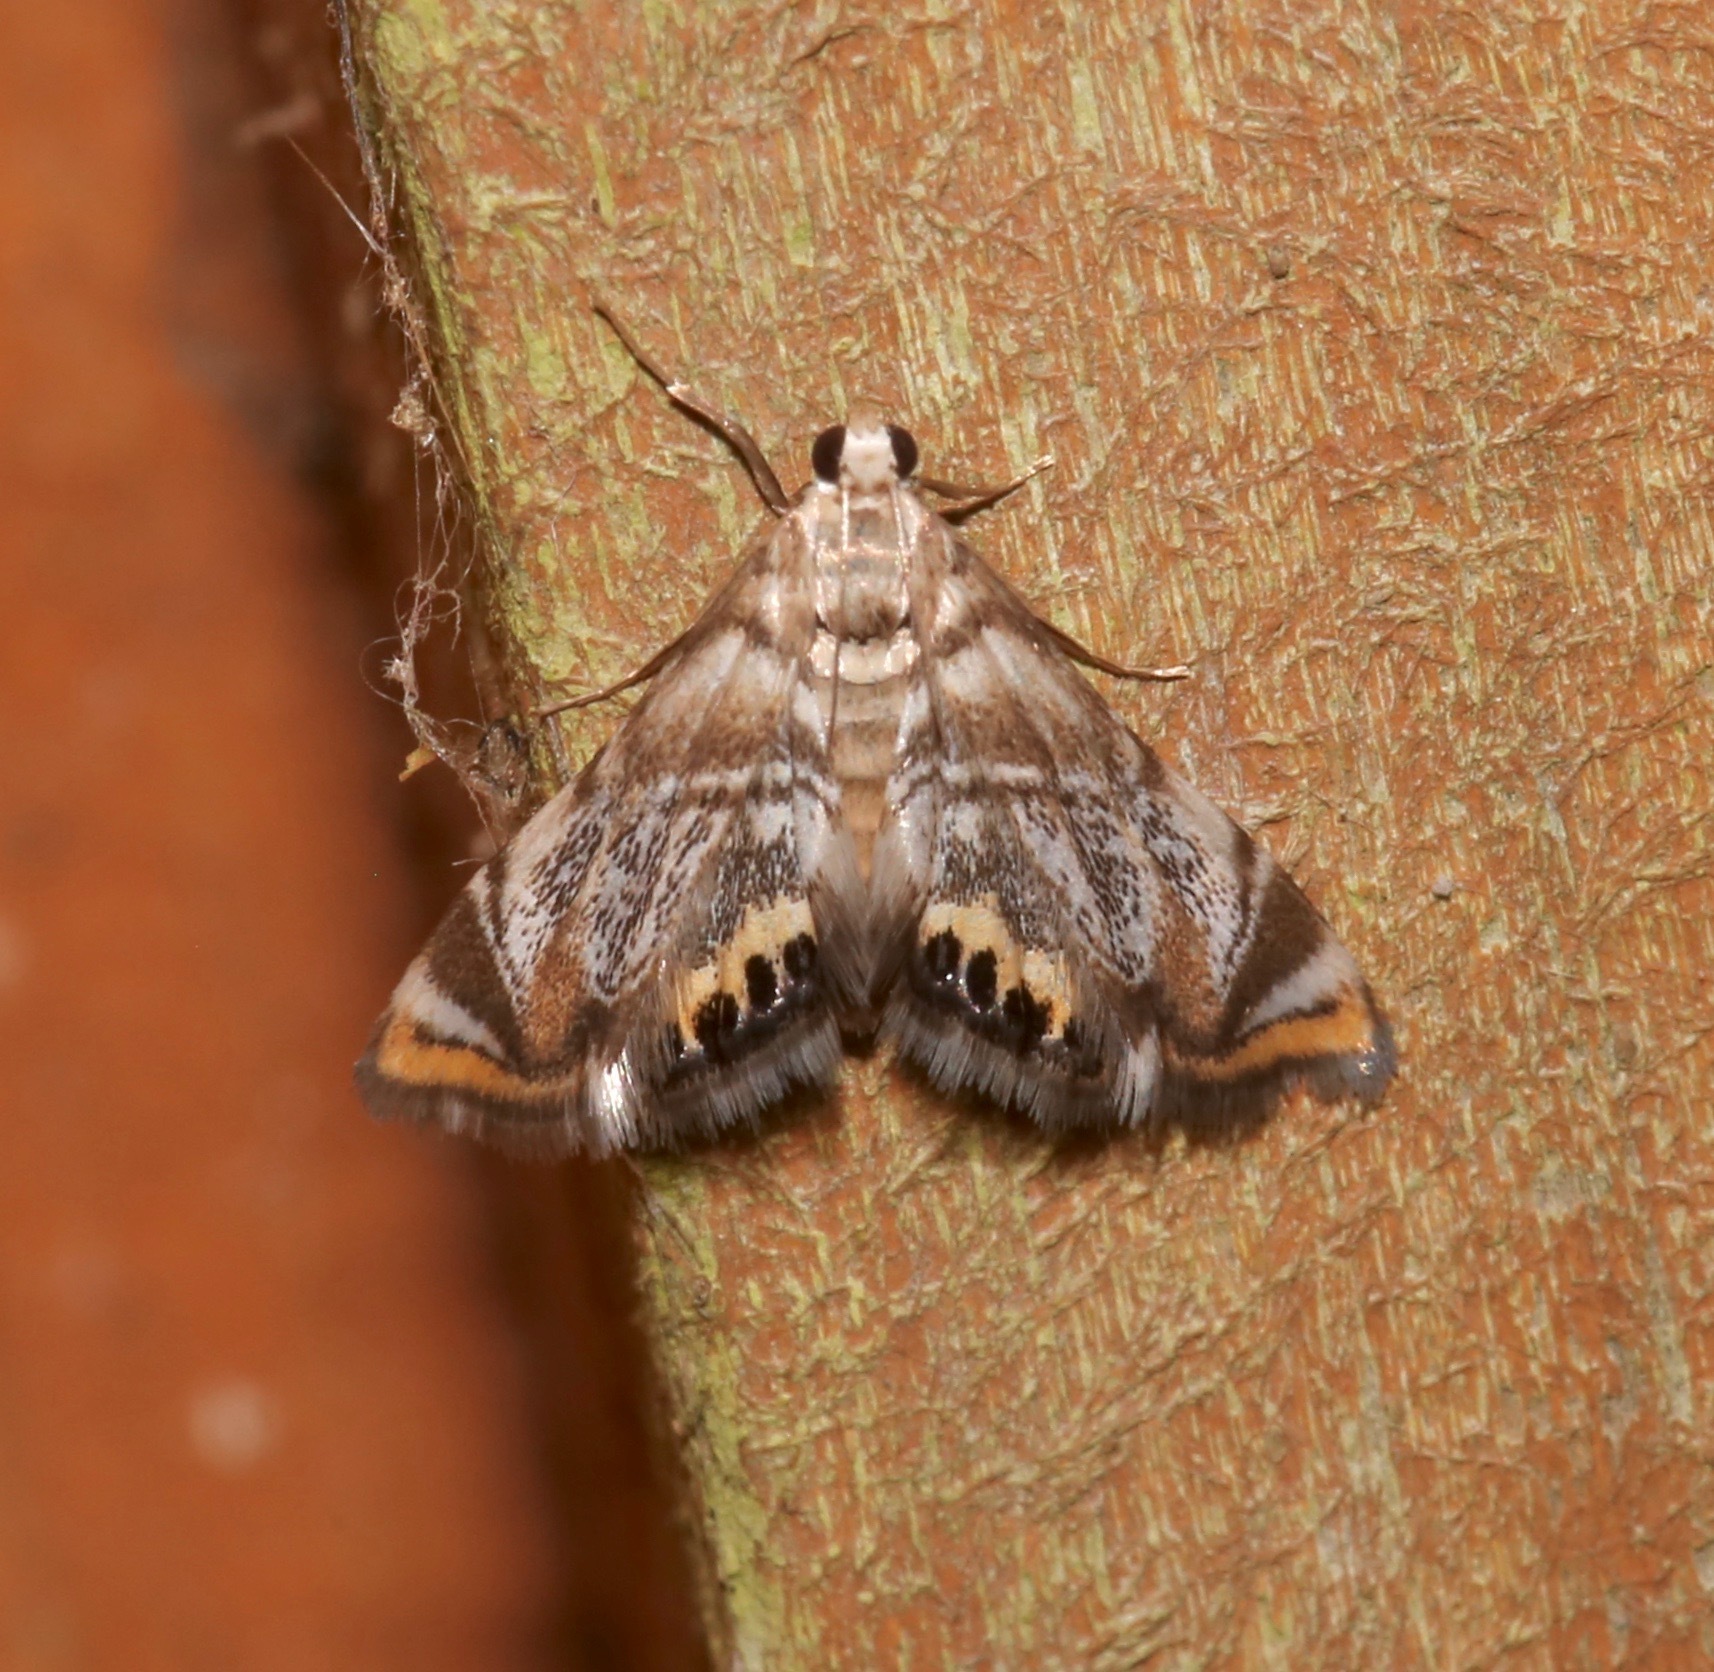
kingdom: Animalia
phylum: Arthropoda
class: Insecta
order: Lepidoptera
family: Crambidae
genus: Eoparargyractis
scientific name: Eoparargyractis irroratalis
